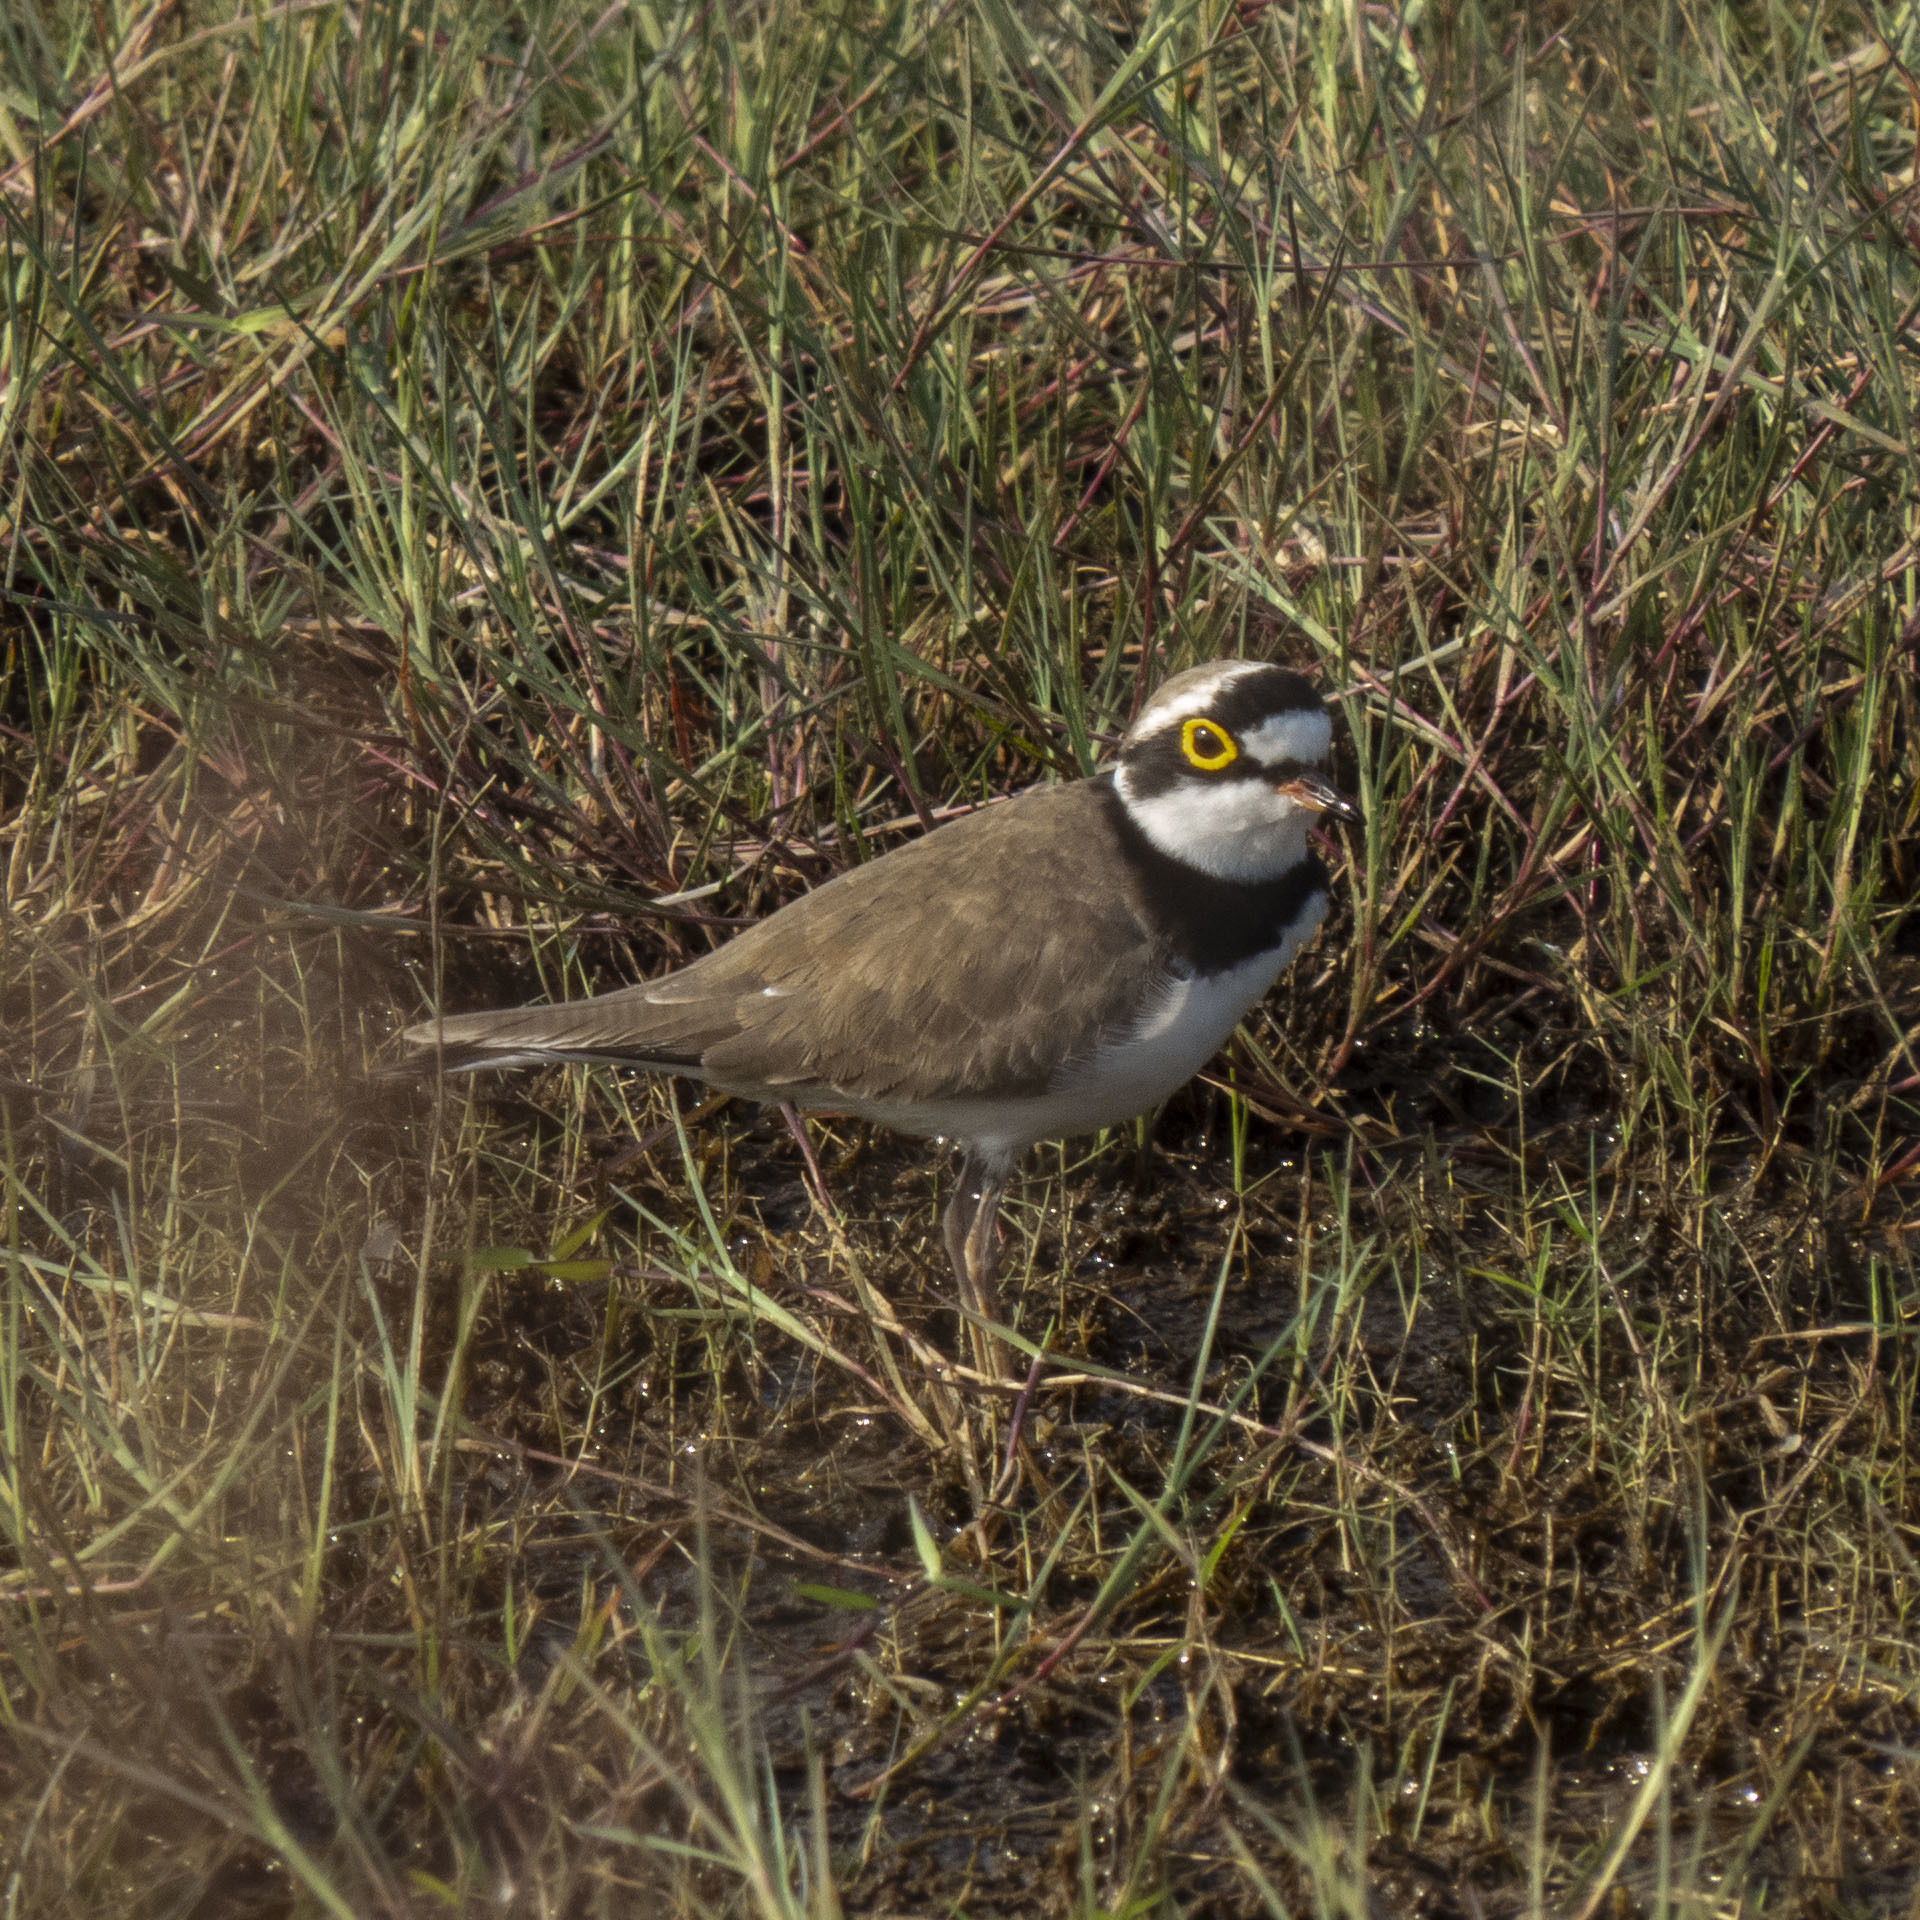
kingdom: Animalia
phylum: Chordata
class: Aves
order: Charadriiformes
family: Charadriidae
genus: Charadrius
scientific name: Charadrius dubius
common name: Little ringed plover
